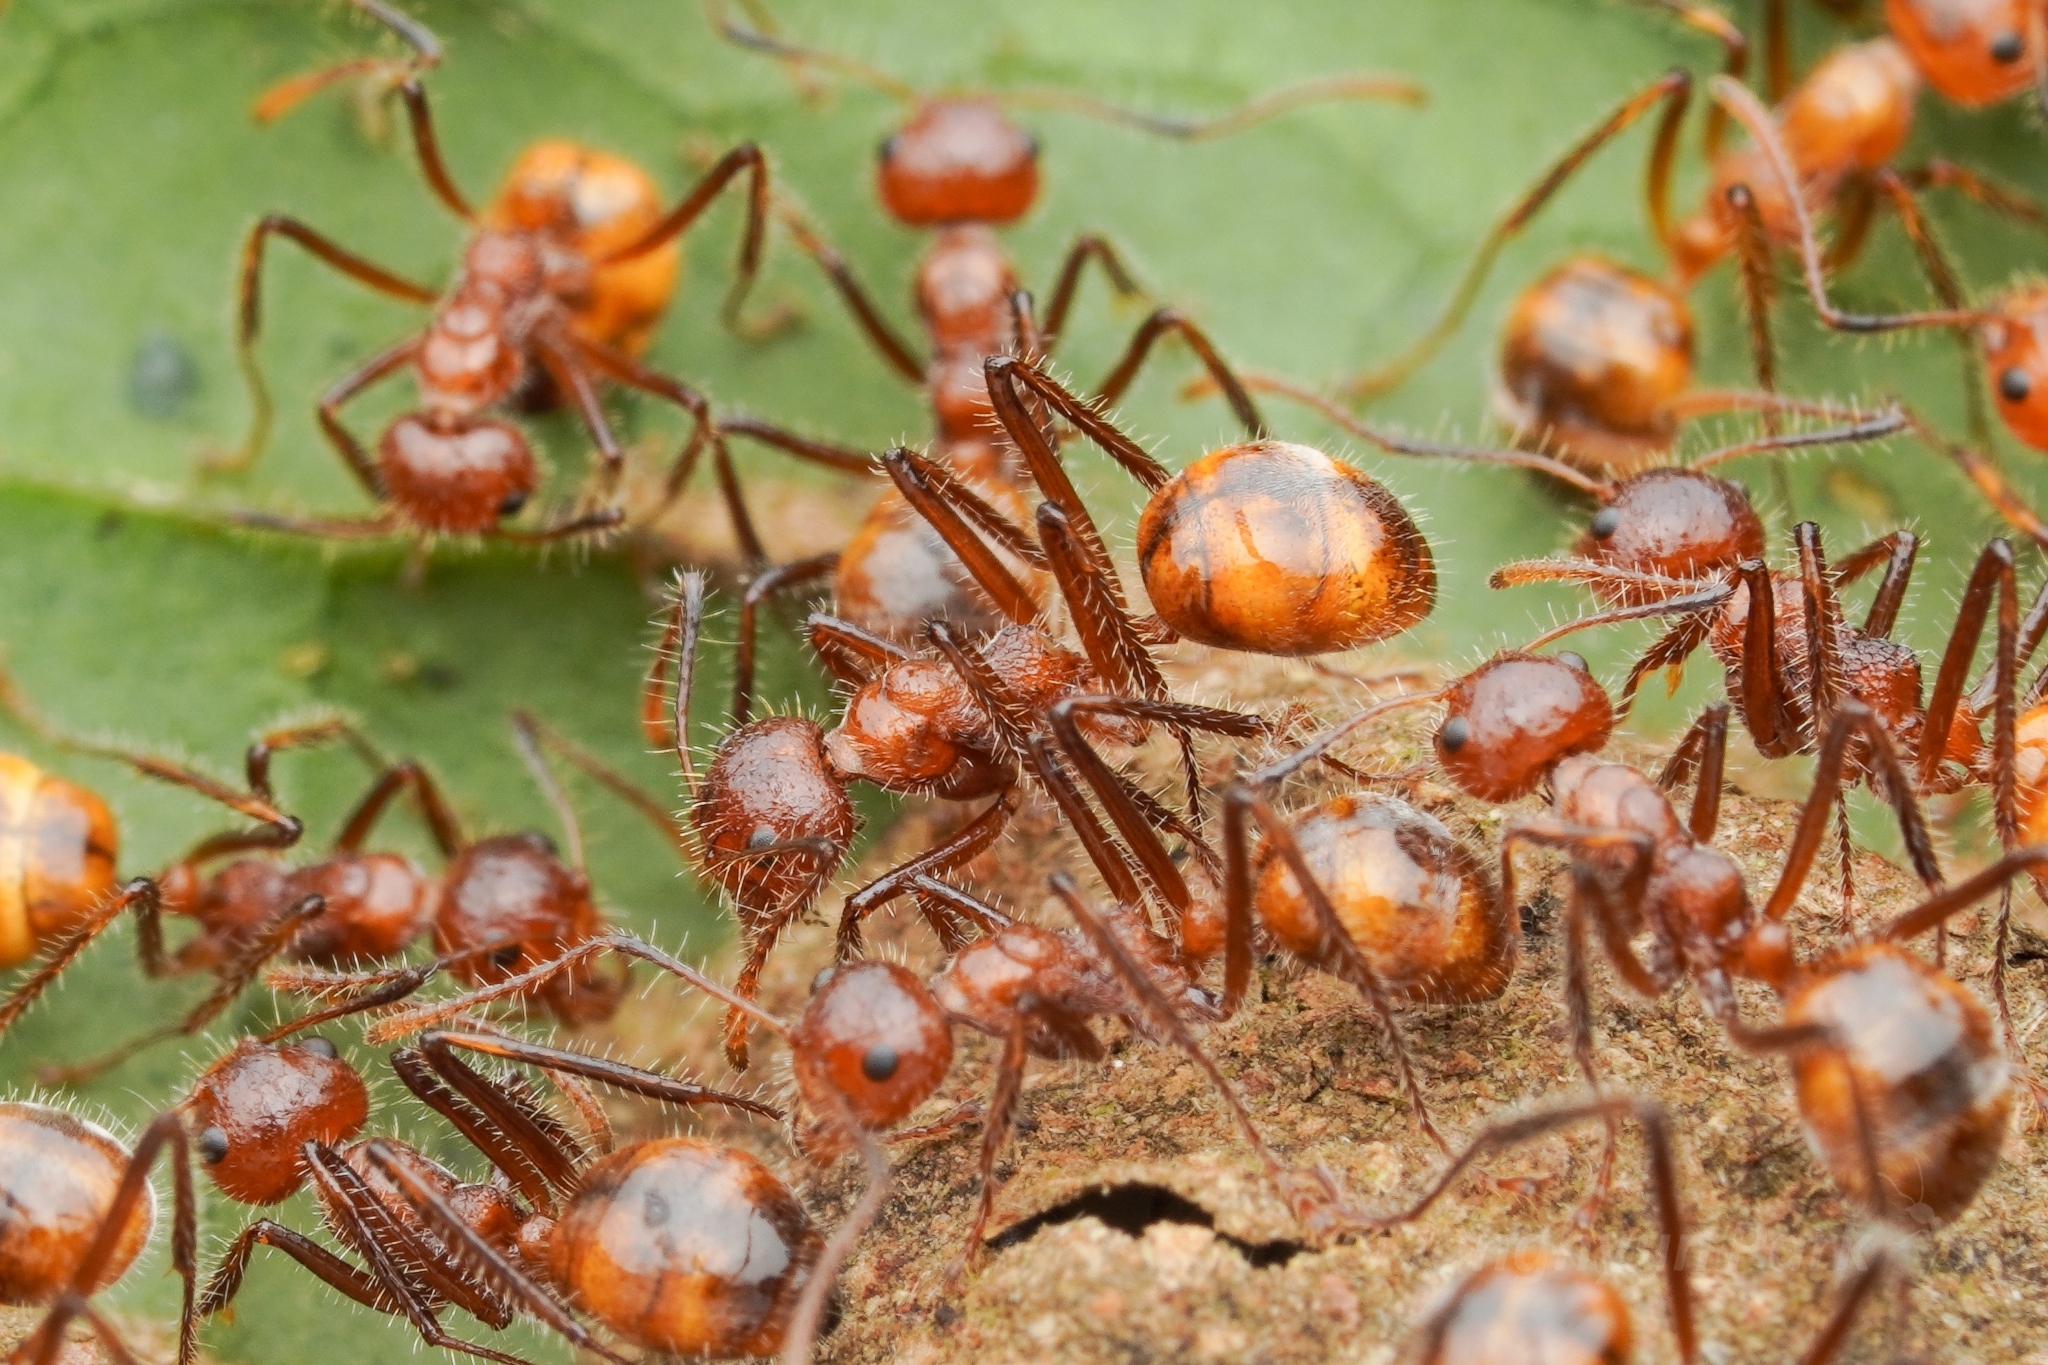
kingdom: Animalia
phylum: Arthropoda
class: Insecta
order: Hymenoptera
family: Formicidae
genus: Dolichoderus
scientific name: Dolichoderus patens
